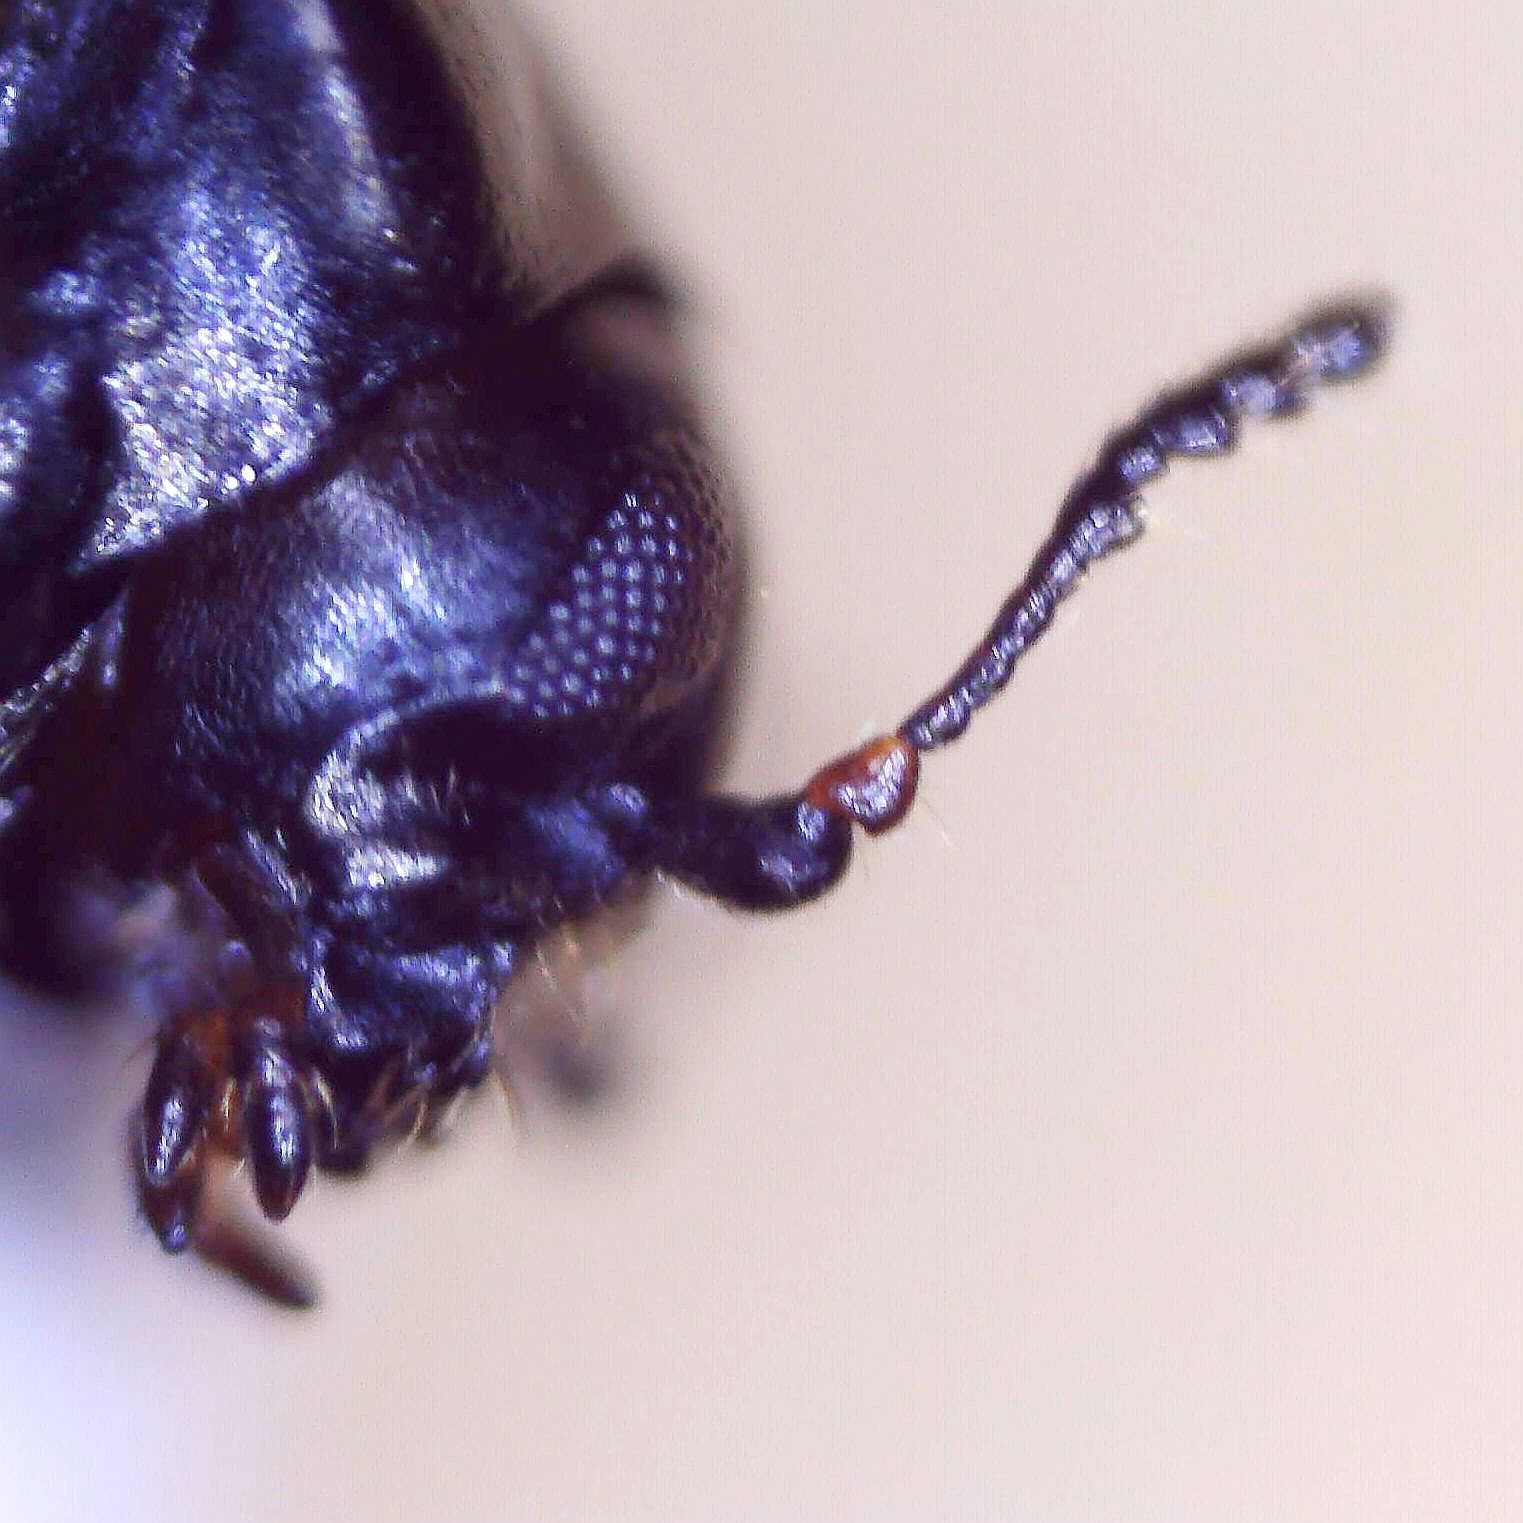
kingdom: Animalia
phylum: Arthropoda
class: Insecta
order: Coleoptera
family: Chrysomelidae
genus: Oomorphus
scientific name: Oomorphus concolor
